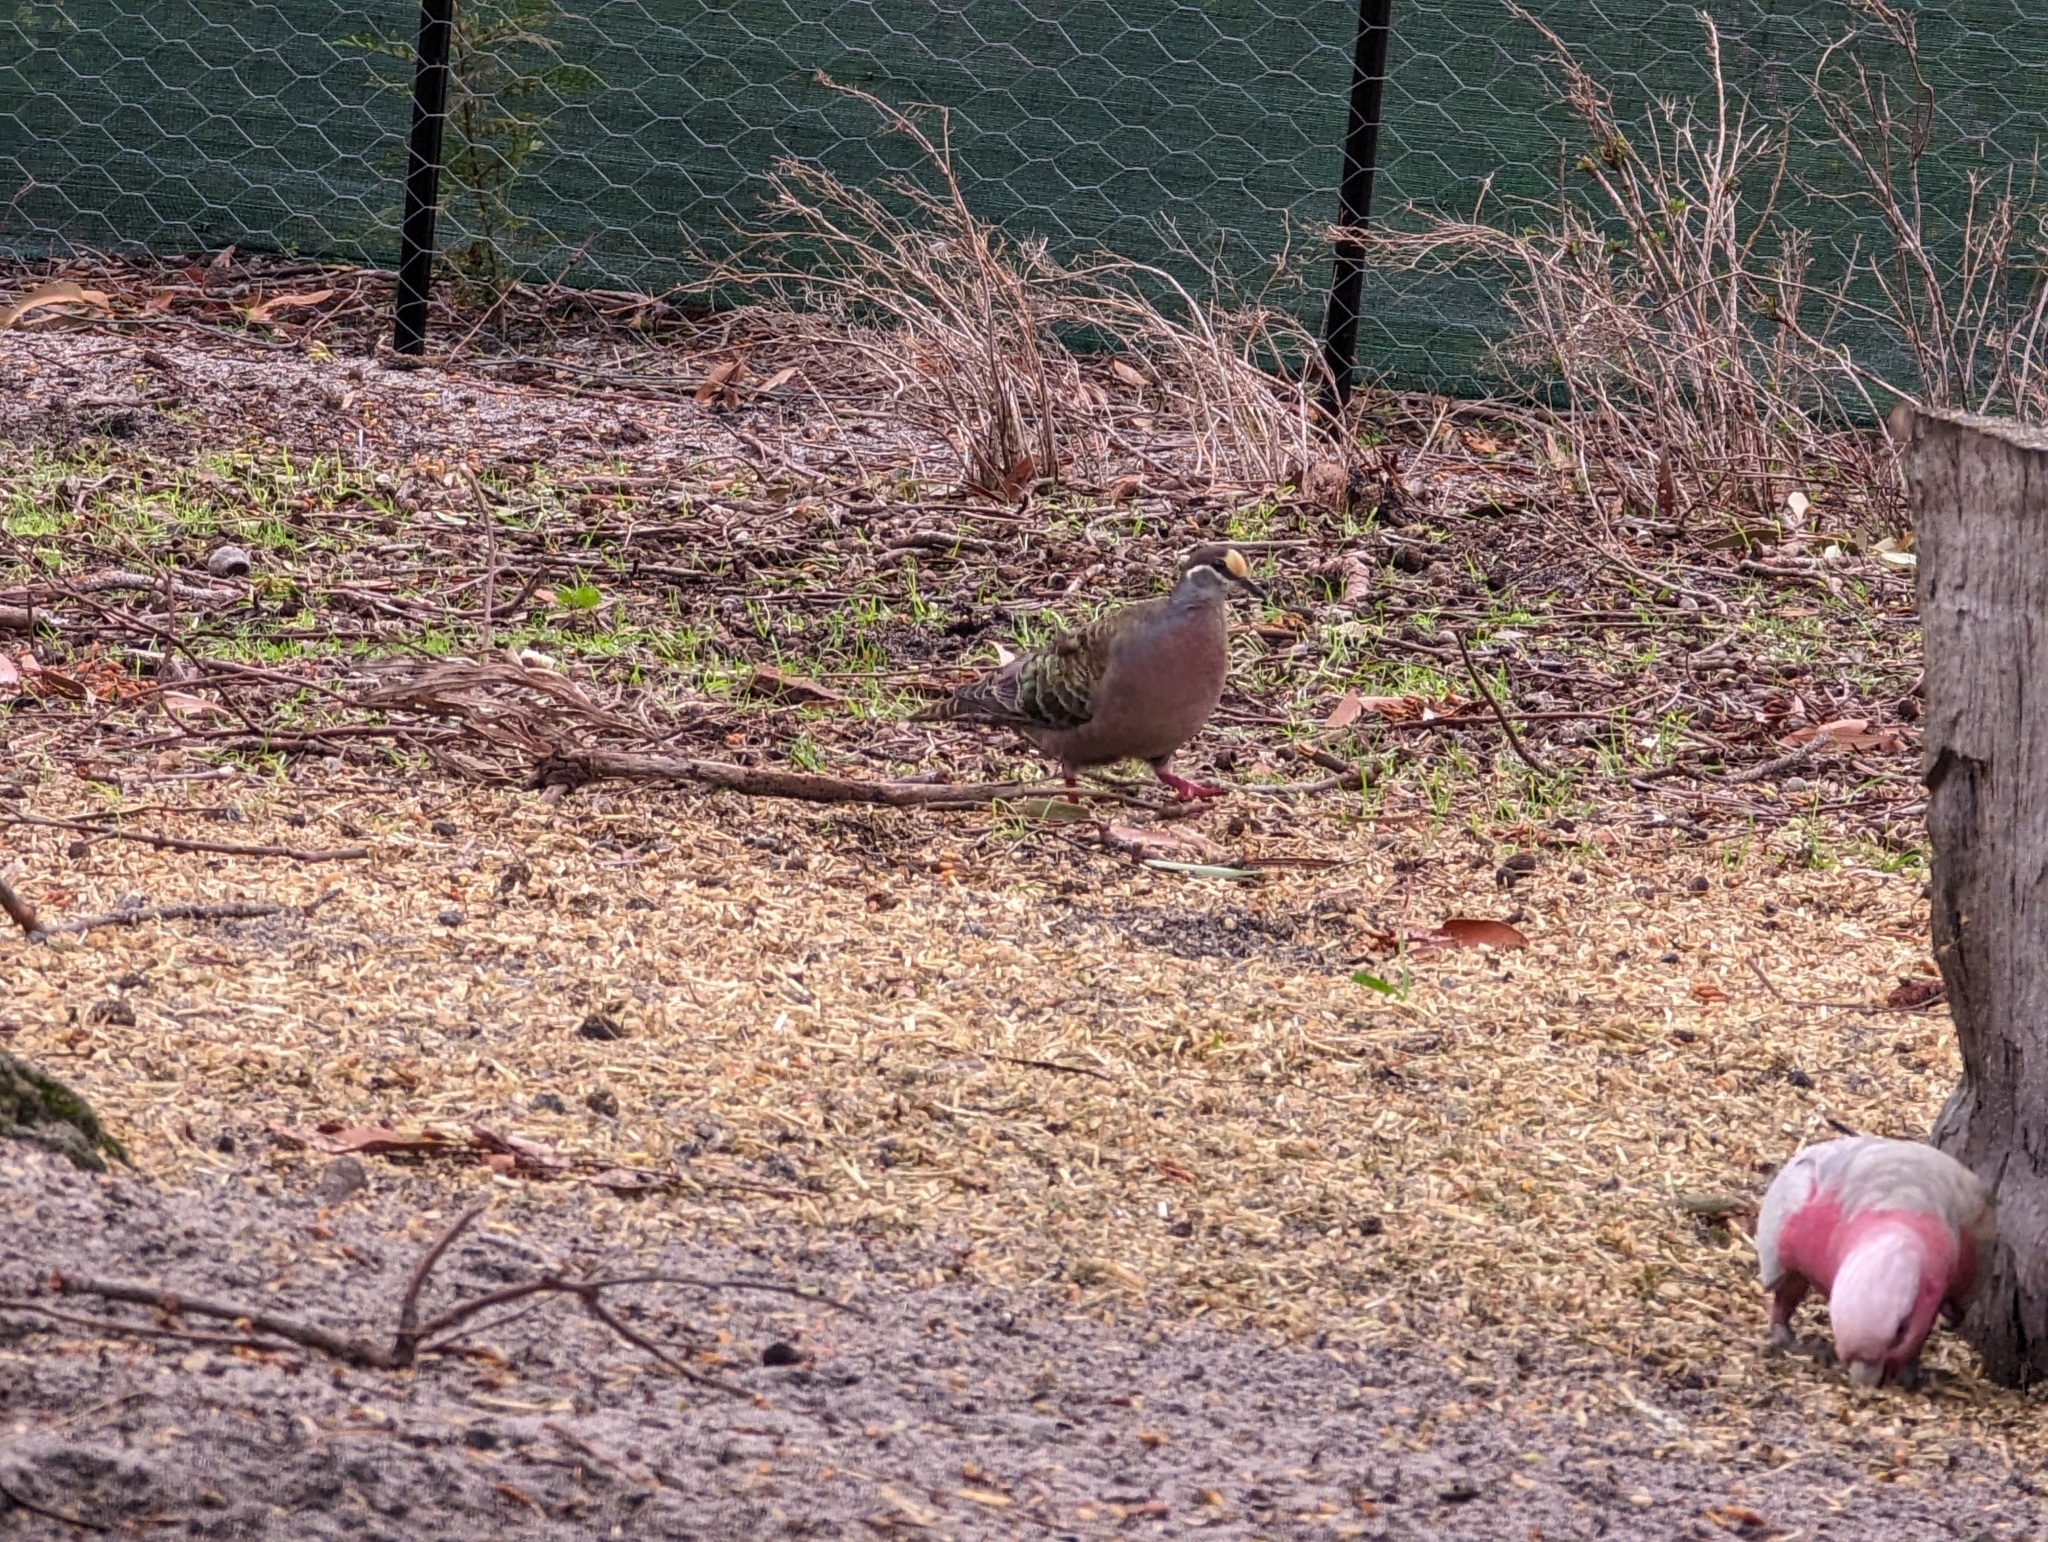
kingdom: Animalia
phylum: Chordata
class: Aves
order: Columbiformes
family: Columbidae
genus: Phaps
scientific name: Phaps chalcoptera
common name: Common bronzewing
